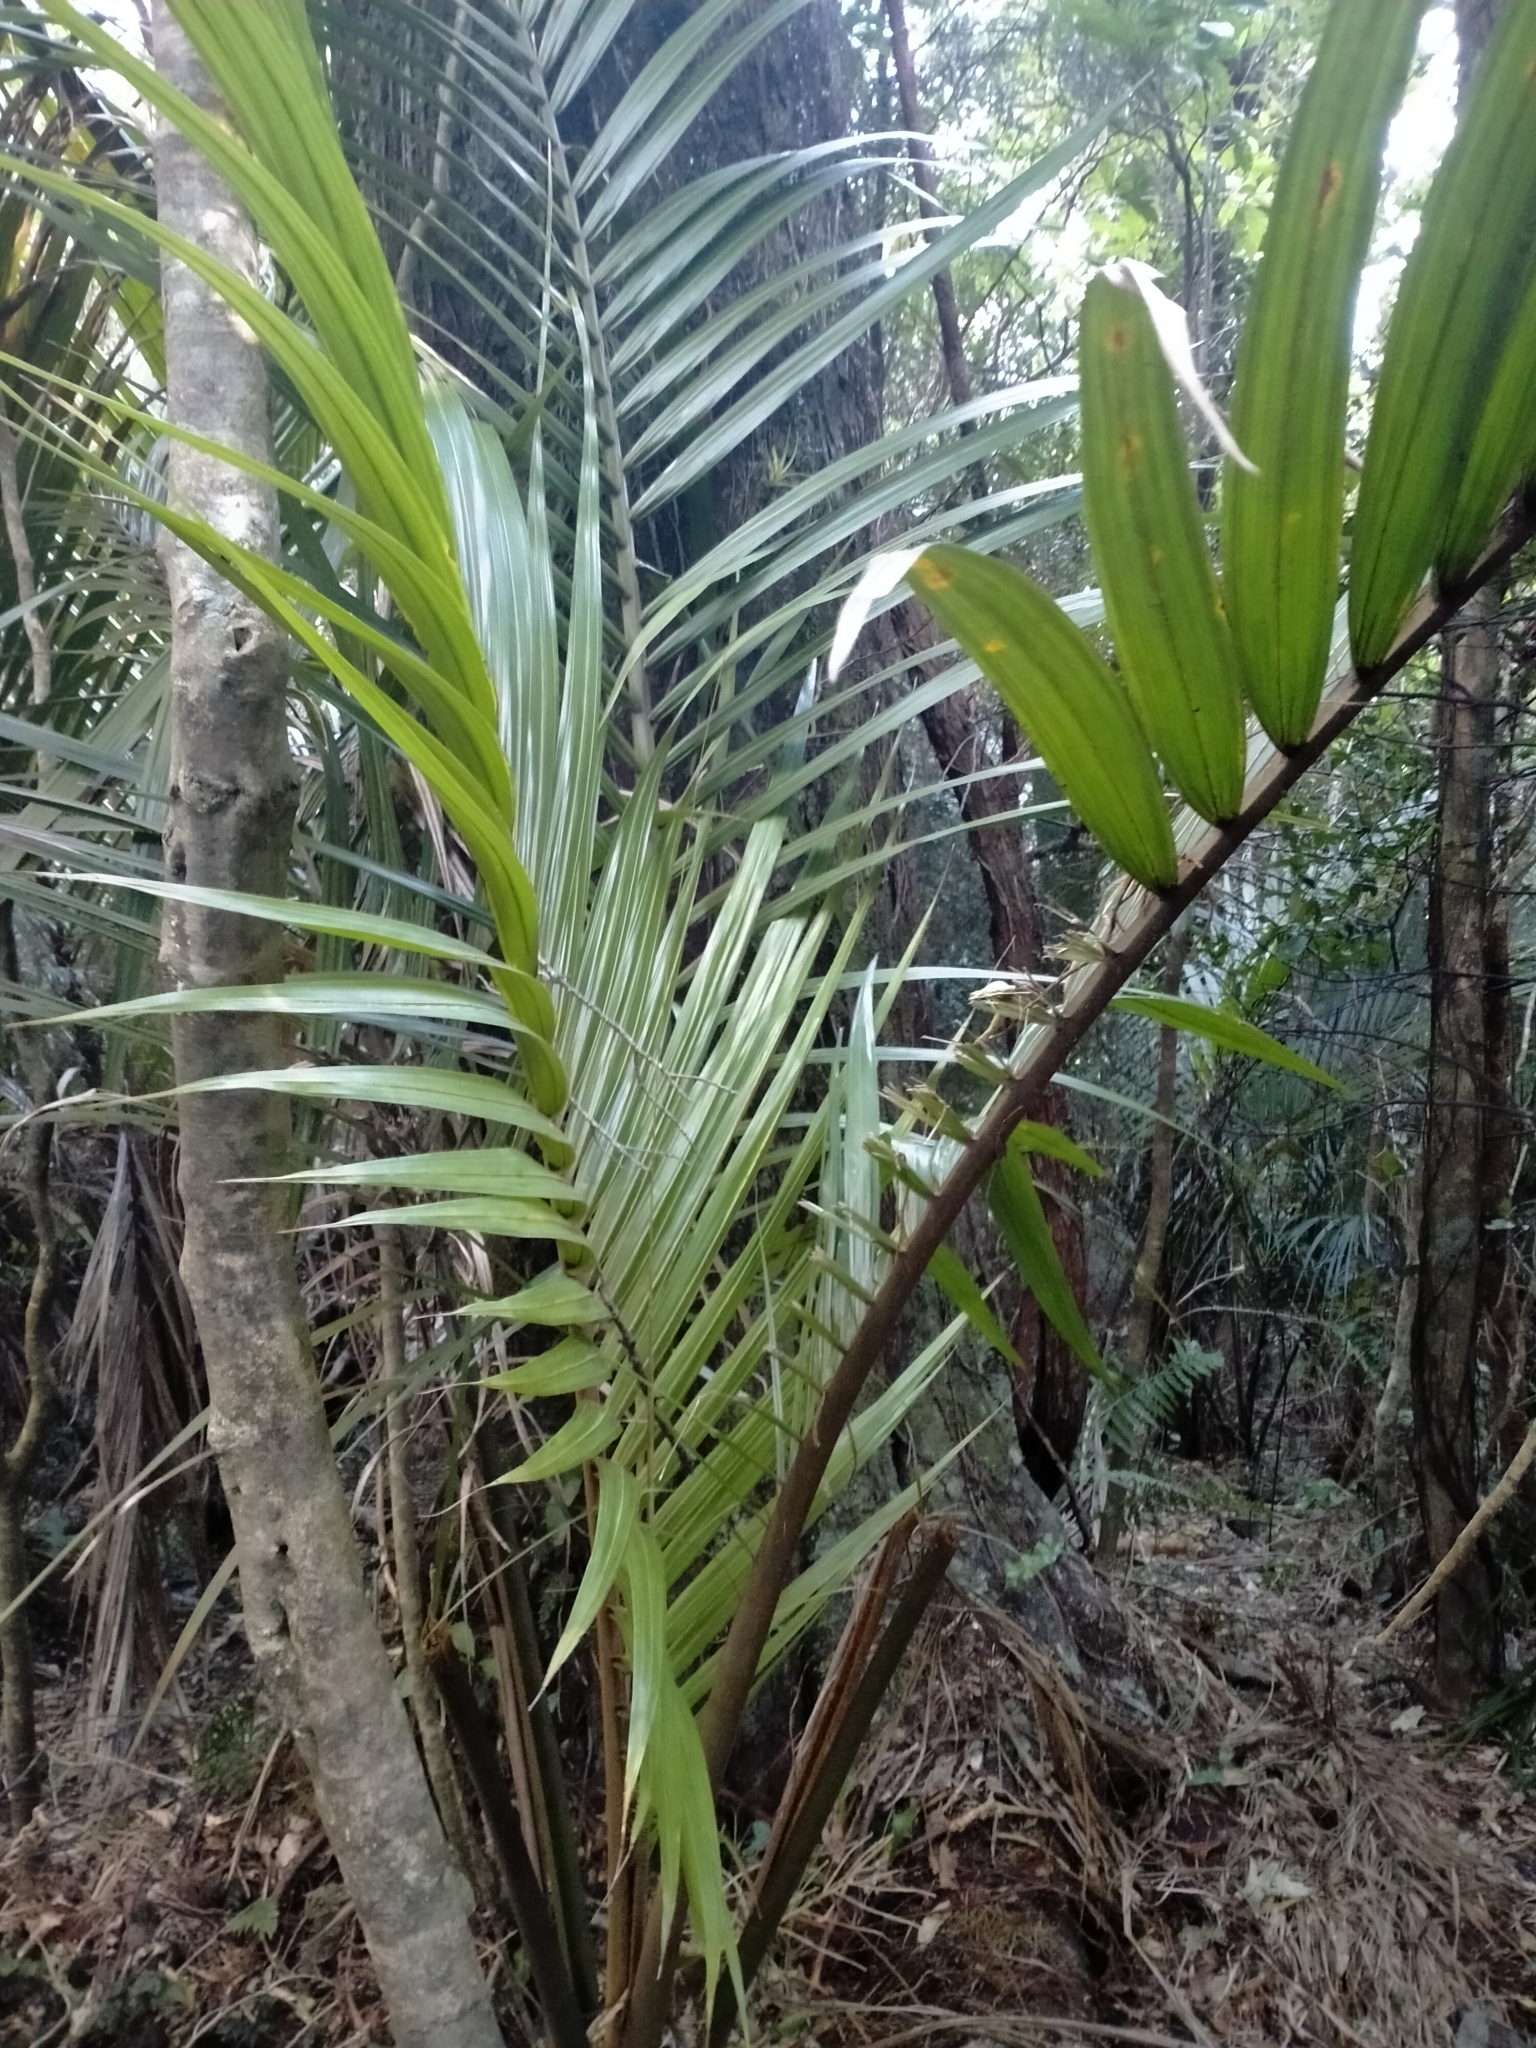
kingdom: Plantae
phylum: Tracheophyta
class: Liliopsida
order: Arecales
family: Arecaceae
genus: Rhopalostylis
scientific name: Rhopalostylis sapida
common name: Feather-duster palm
